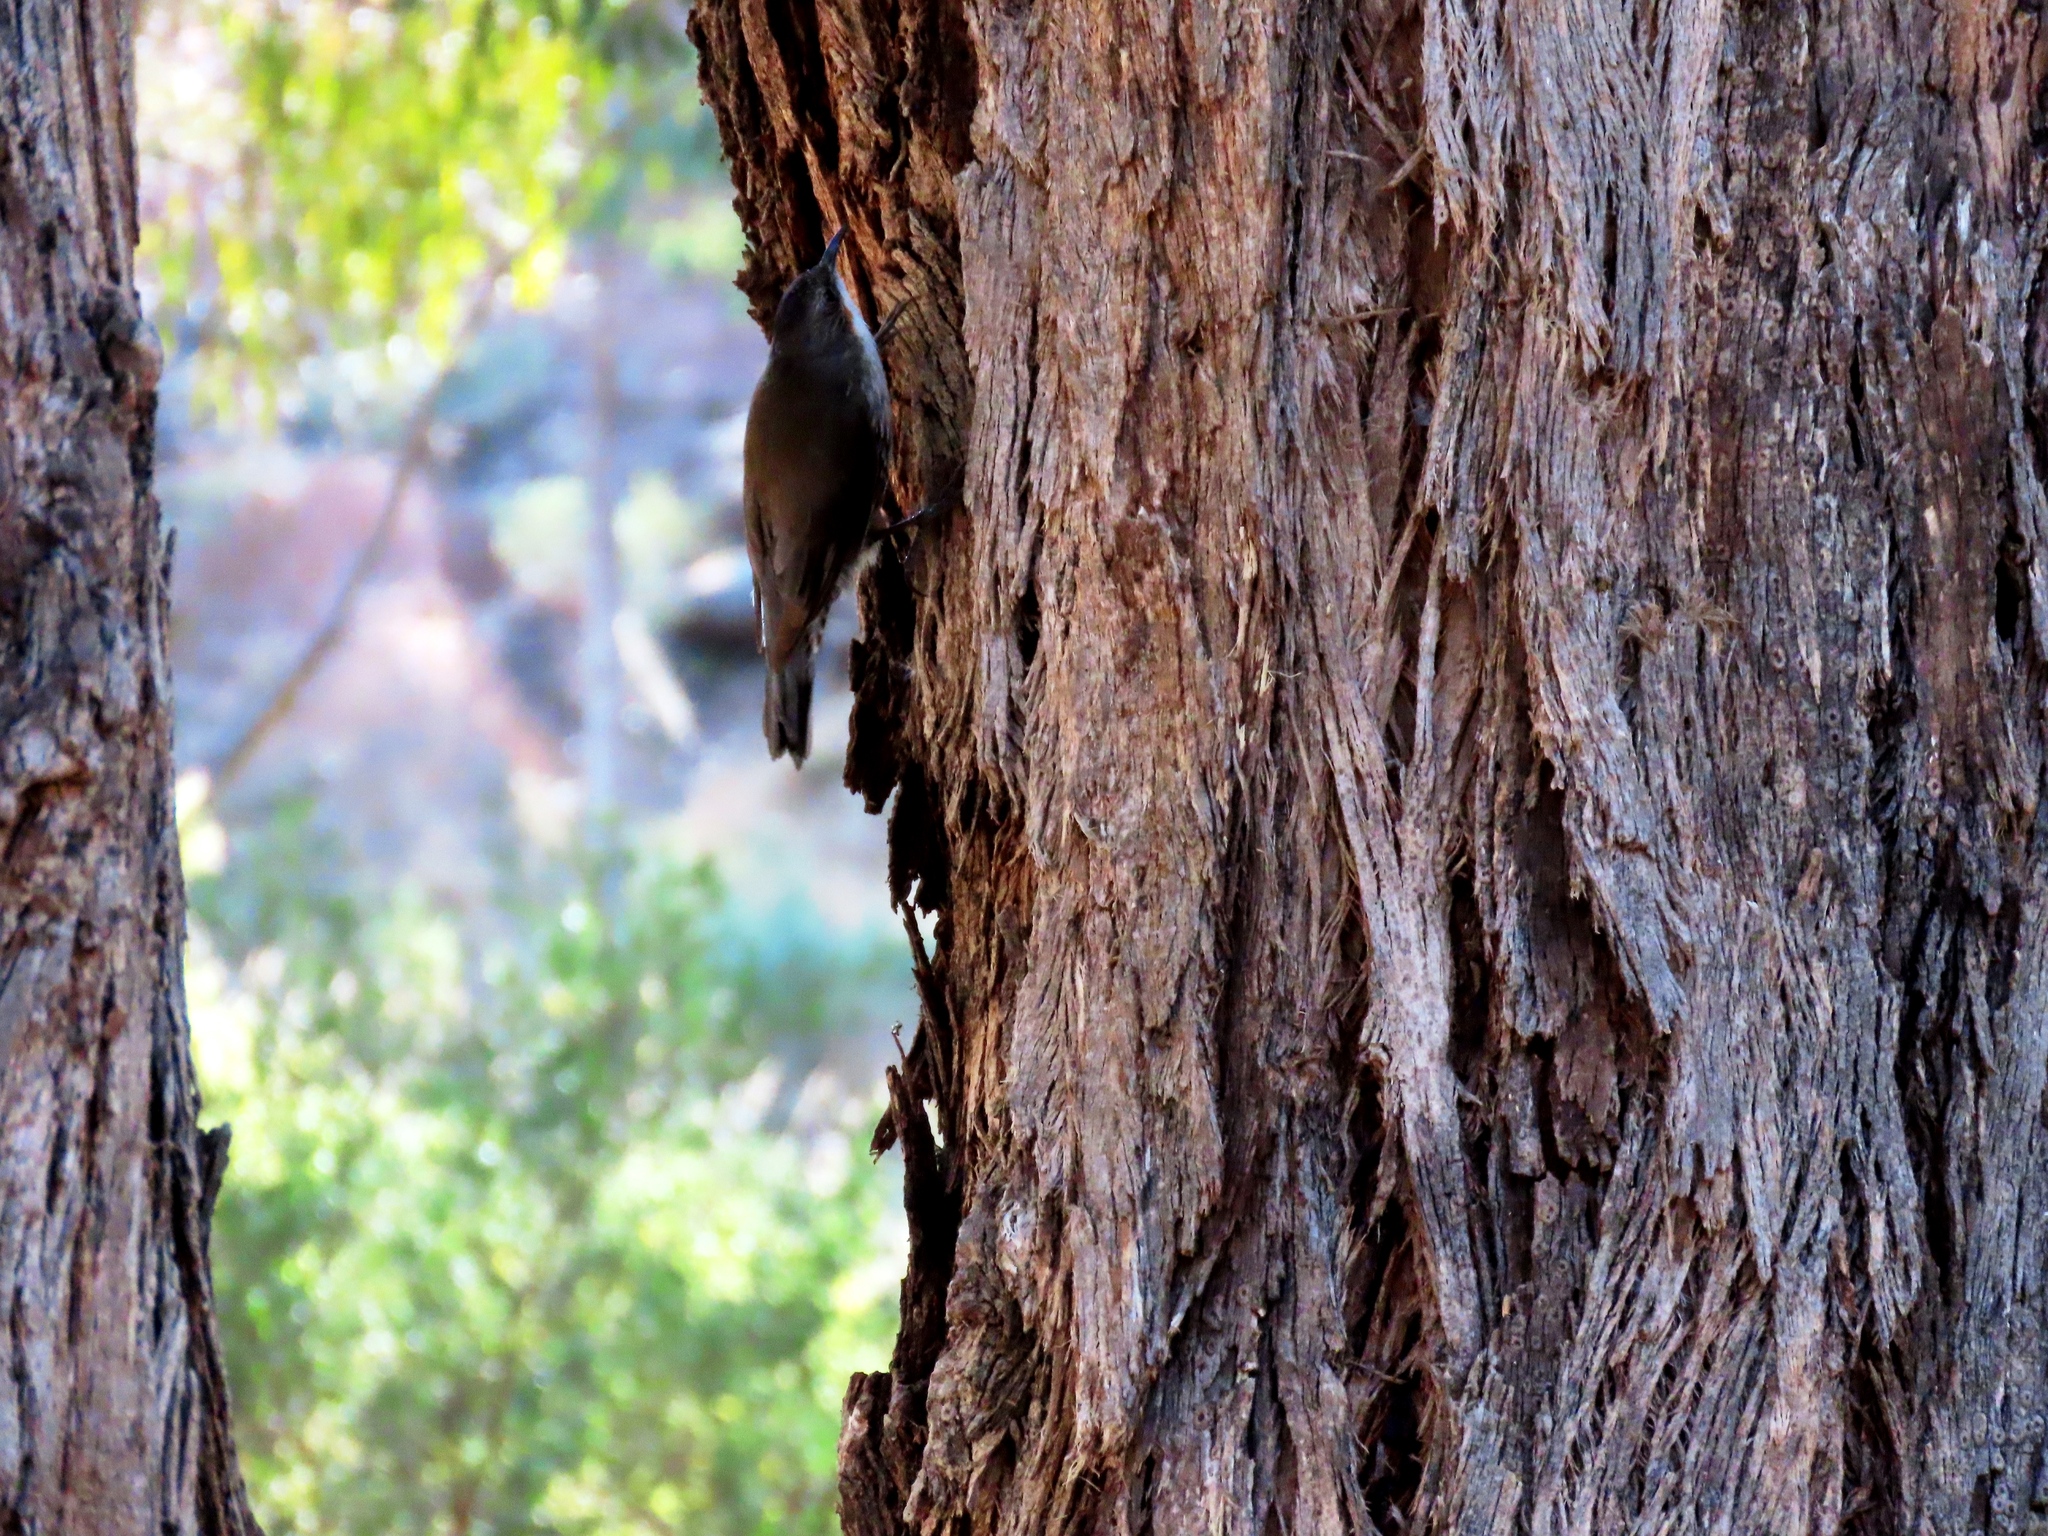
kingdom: Animalia
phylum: Chordata
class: Aves
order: Passeriformes
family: Climacteridae
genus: Cormobates
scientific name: Cormobates leucophaea
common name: White-throated treecreeper
